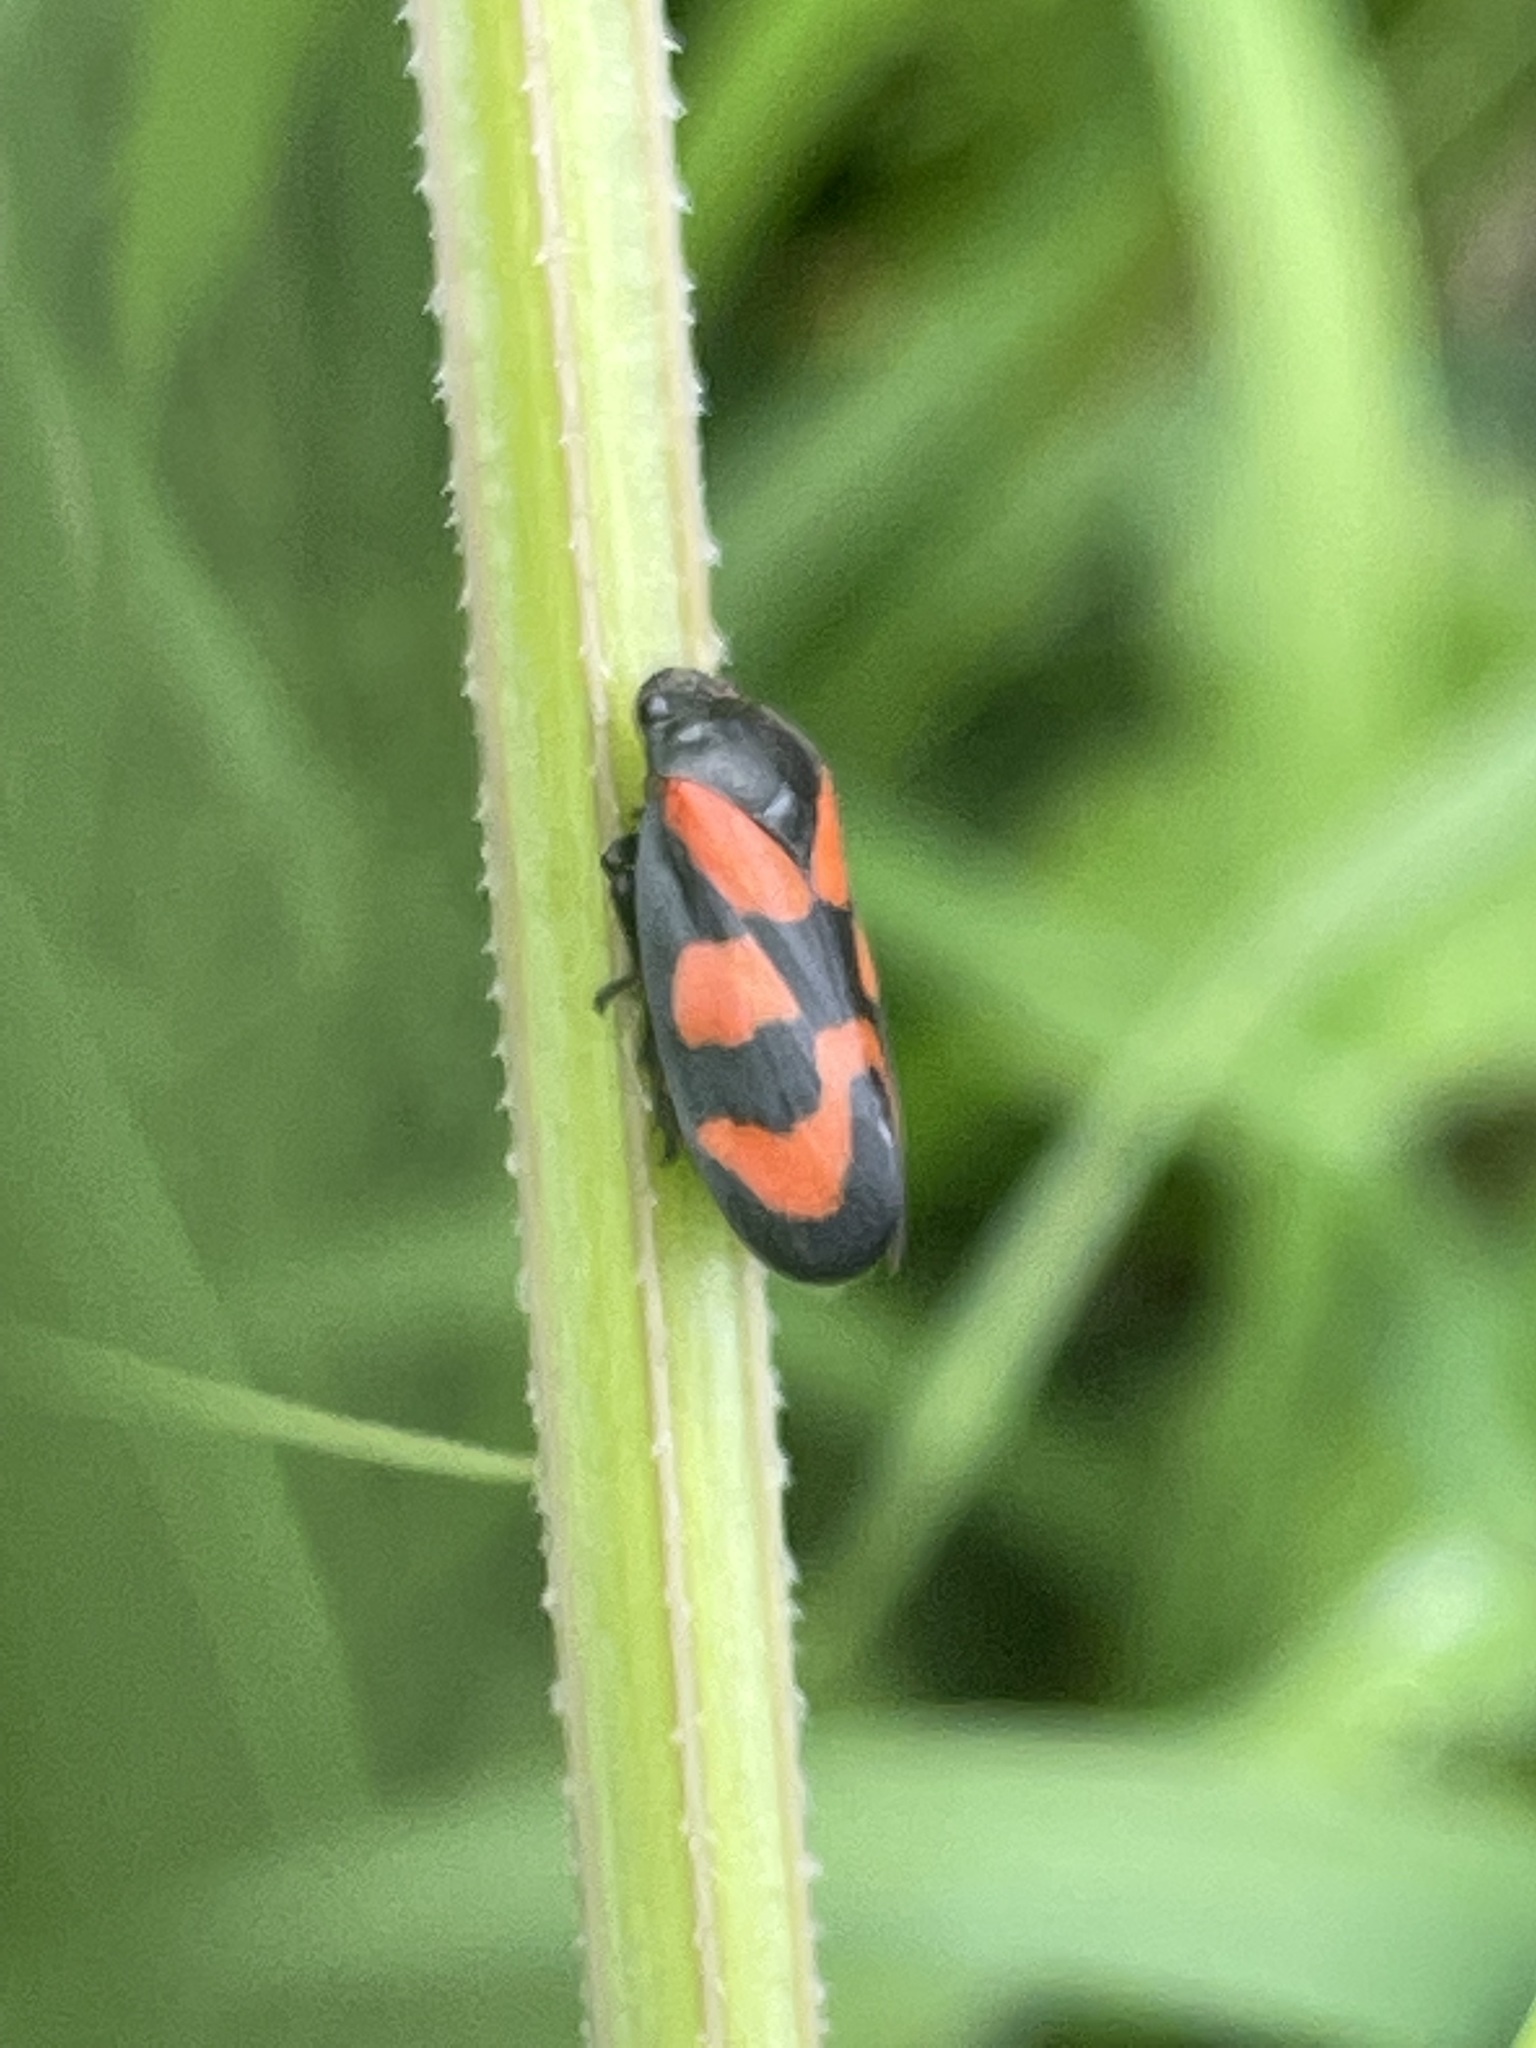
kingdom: Animalia
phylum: Arthropoda
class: Insecta
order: Hemiptera
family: Cercopidae
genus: Cercopis
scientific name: Cercopis vulnerata
